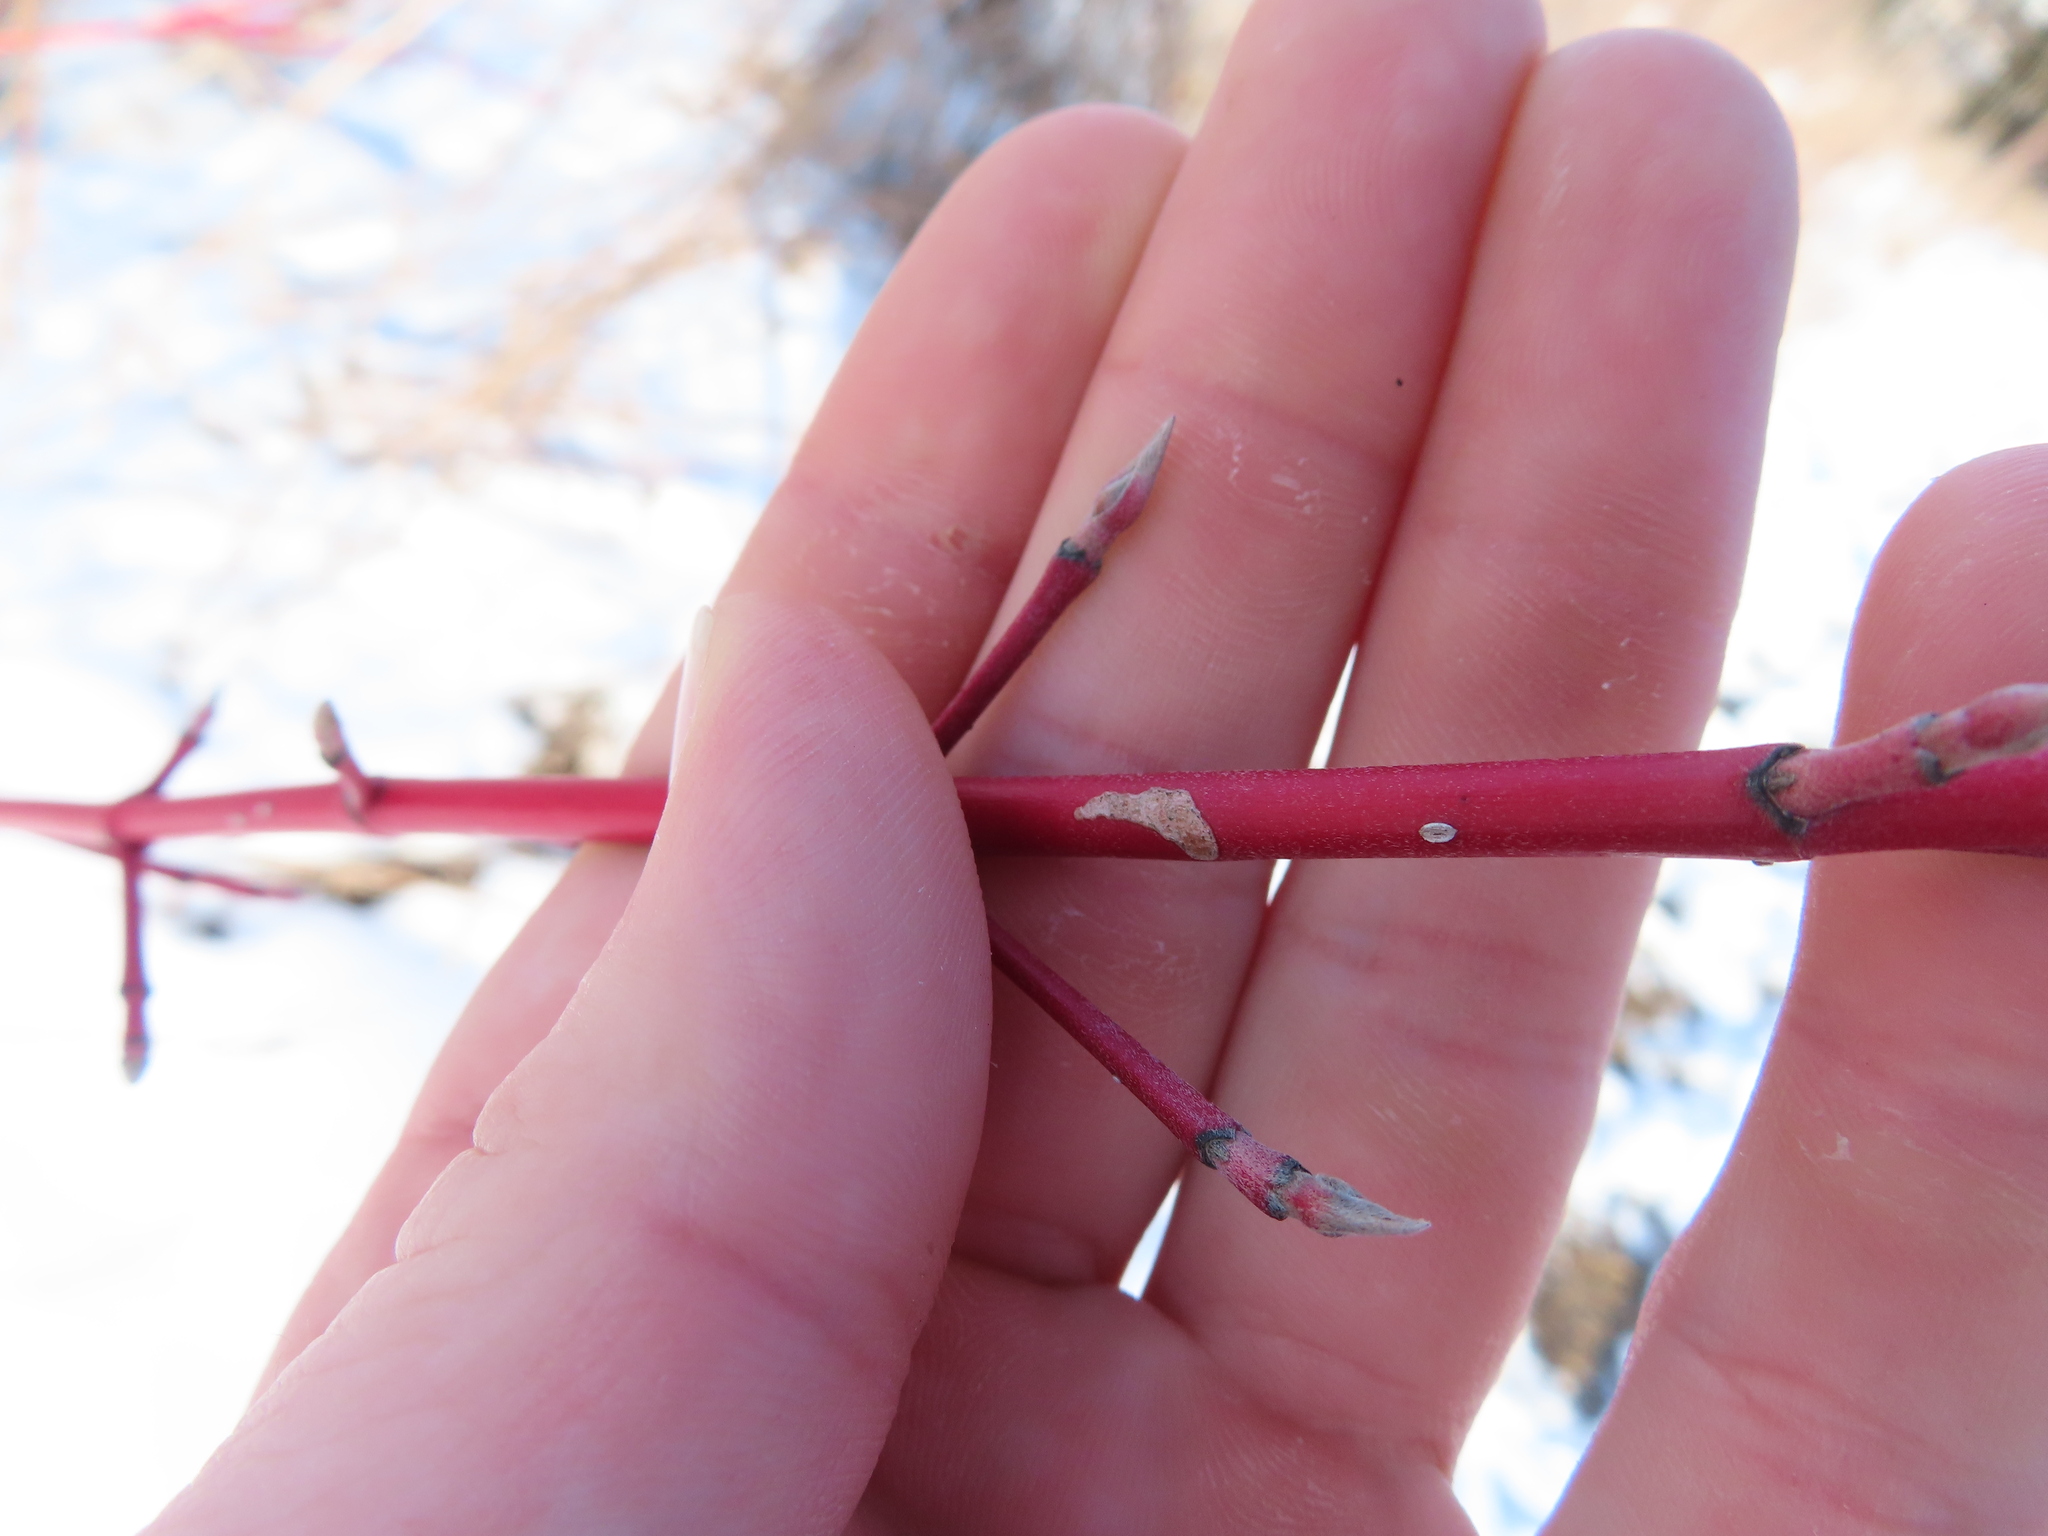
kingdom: Plantae
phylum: Tracheophyta
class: Magnoliopsida
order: Cornales
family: Cornaceae
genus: Cornus
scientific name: Cornus sericea
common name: Red-osier dogwood
